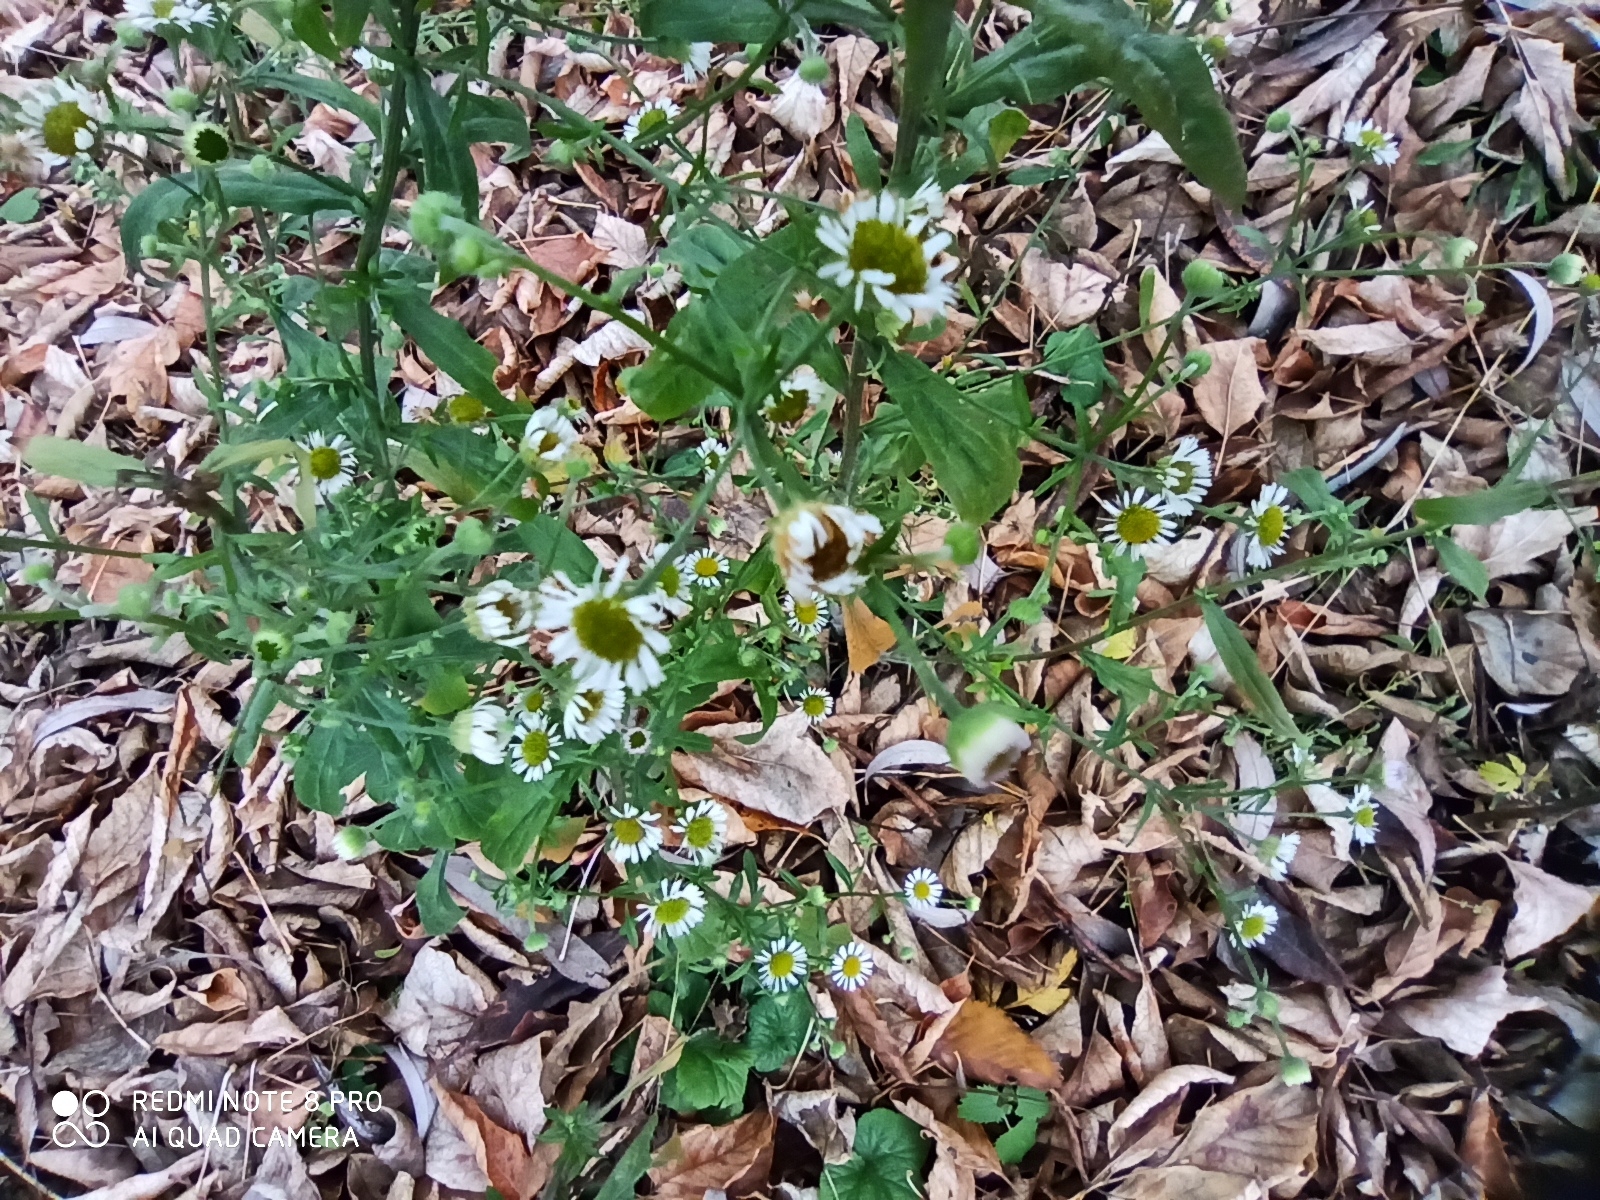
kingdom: Plantae
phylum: Tracheophyta
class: Magnoliopsida
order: Asterales
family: Asteraceae
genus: Erigeron
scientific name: Erigeron annuus
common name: Tall fleabane
